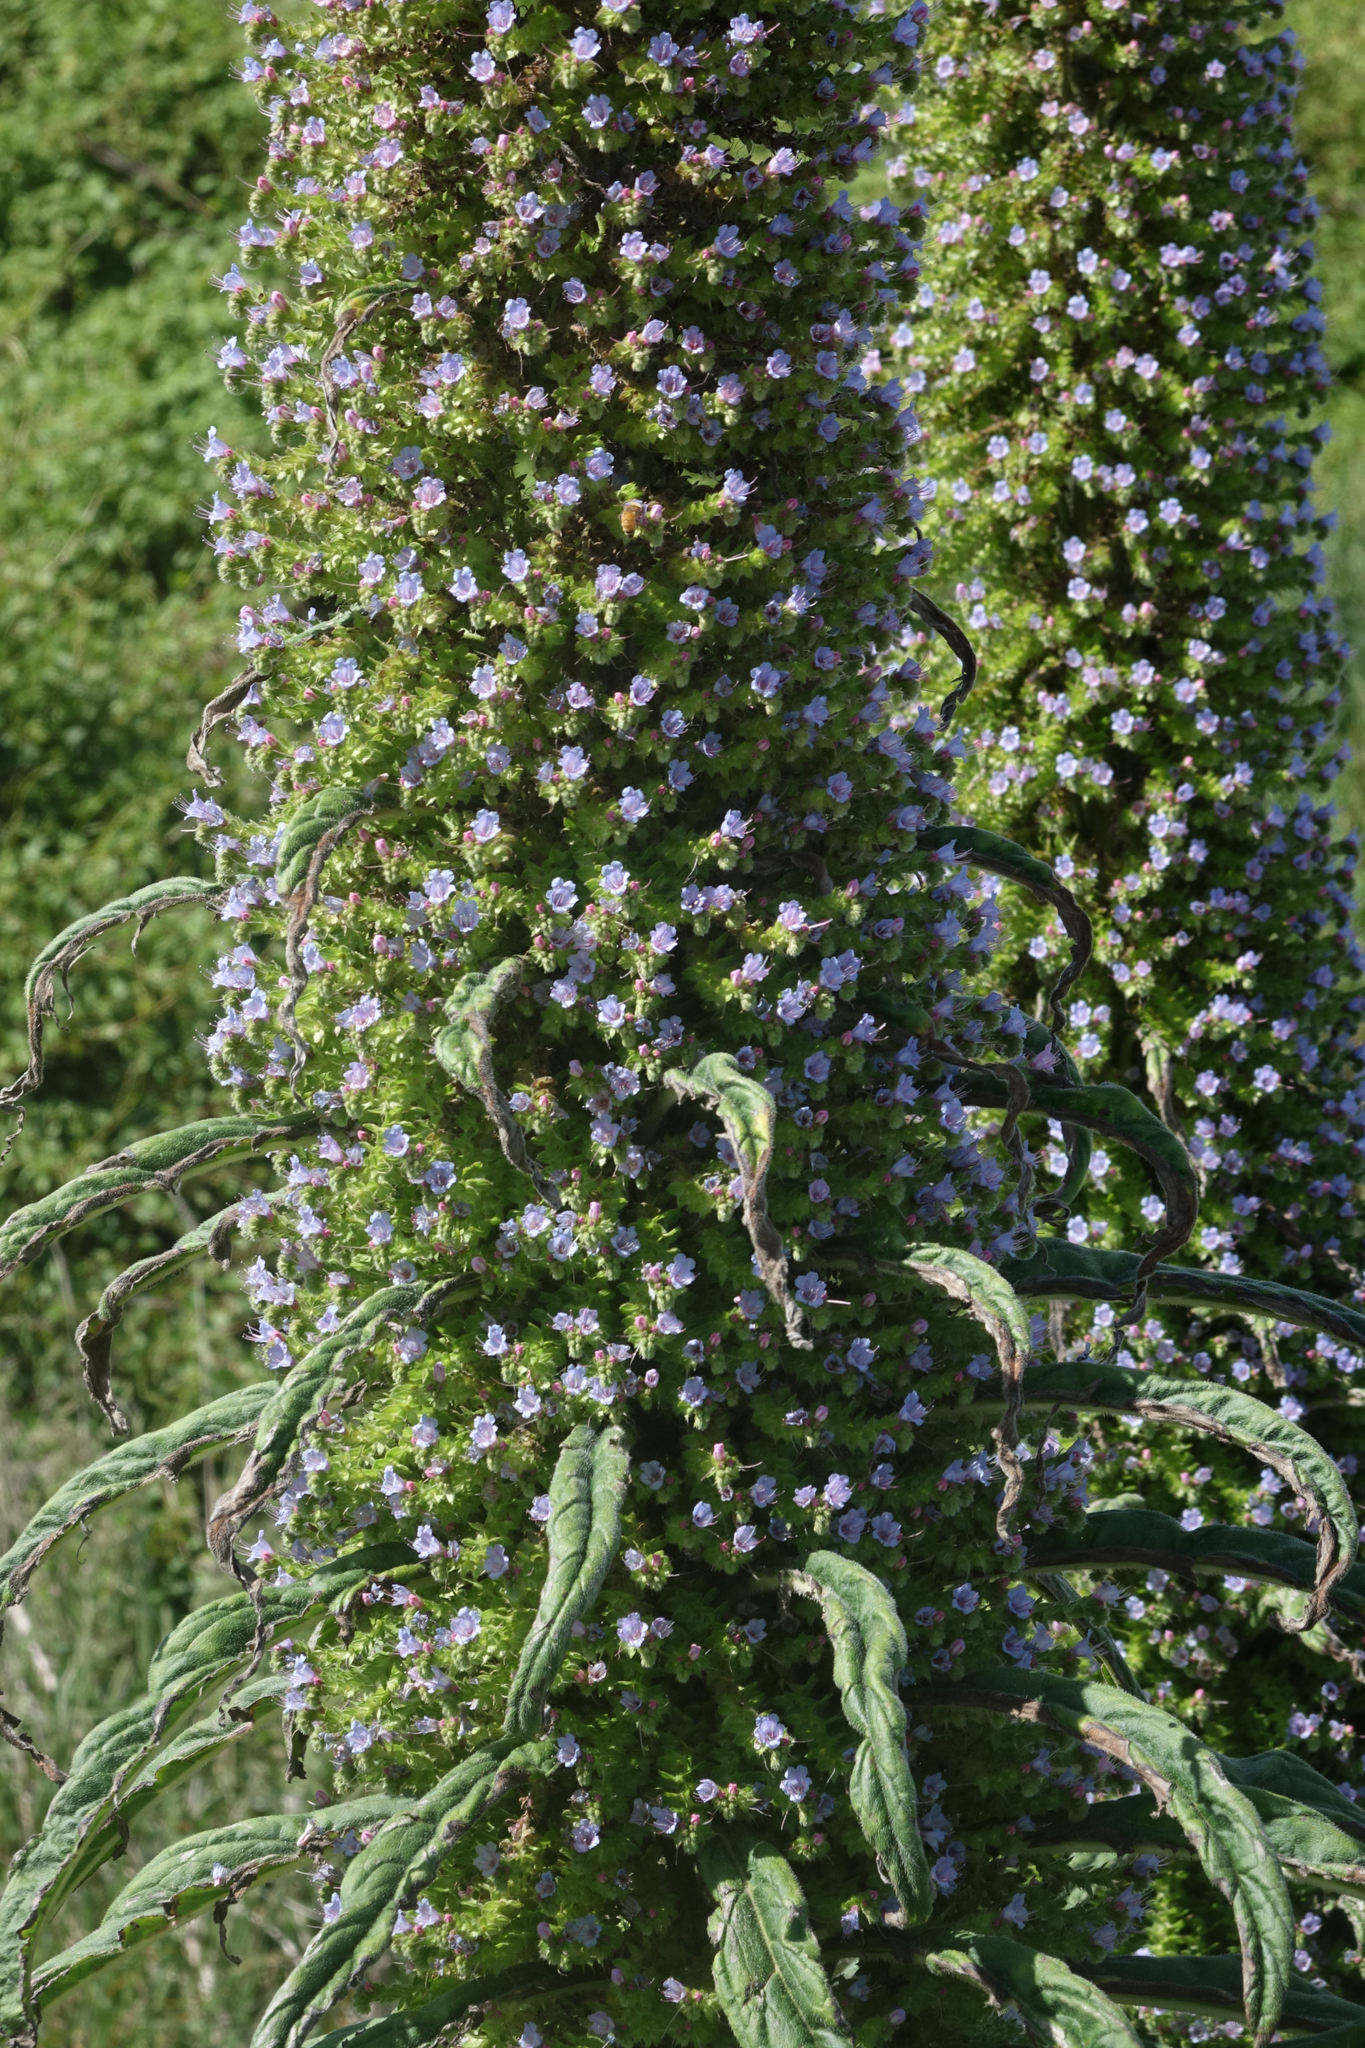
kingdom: Plantae
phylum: Tracheophyta
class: Magnoliopsida
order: Boraginales
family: Boraginaceae
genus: Echium
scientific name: Echium pininana
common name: Giant viper's-bugloss
